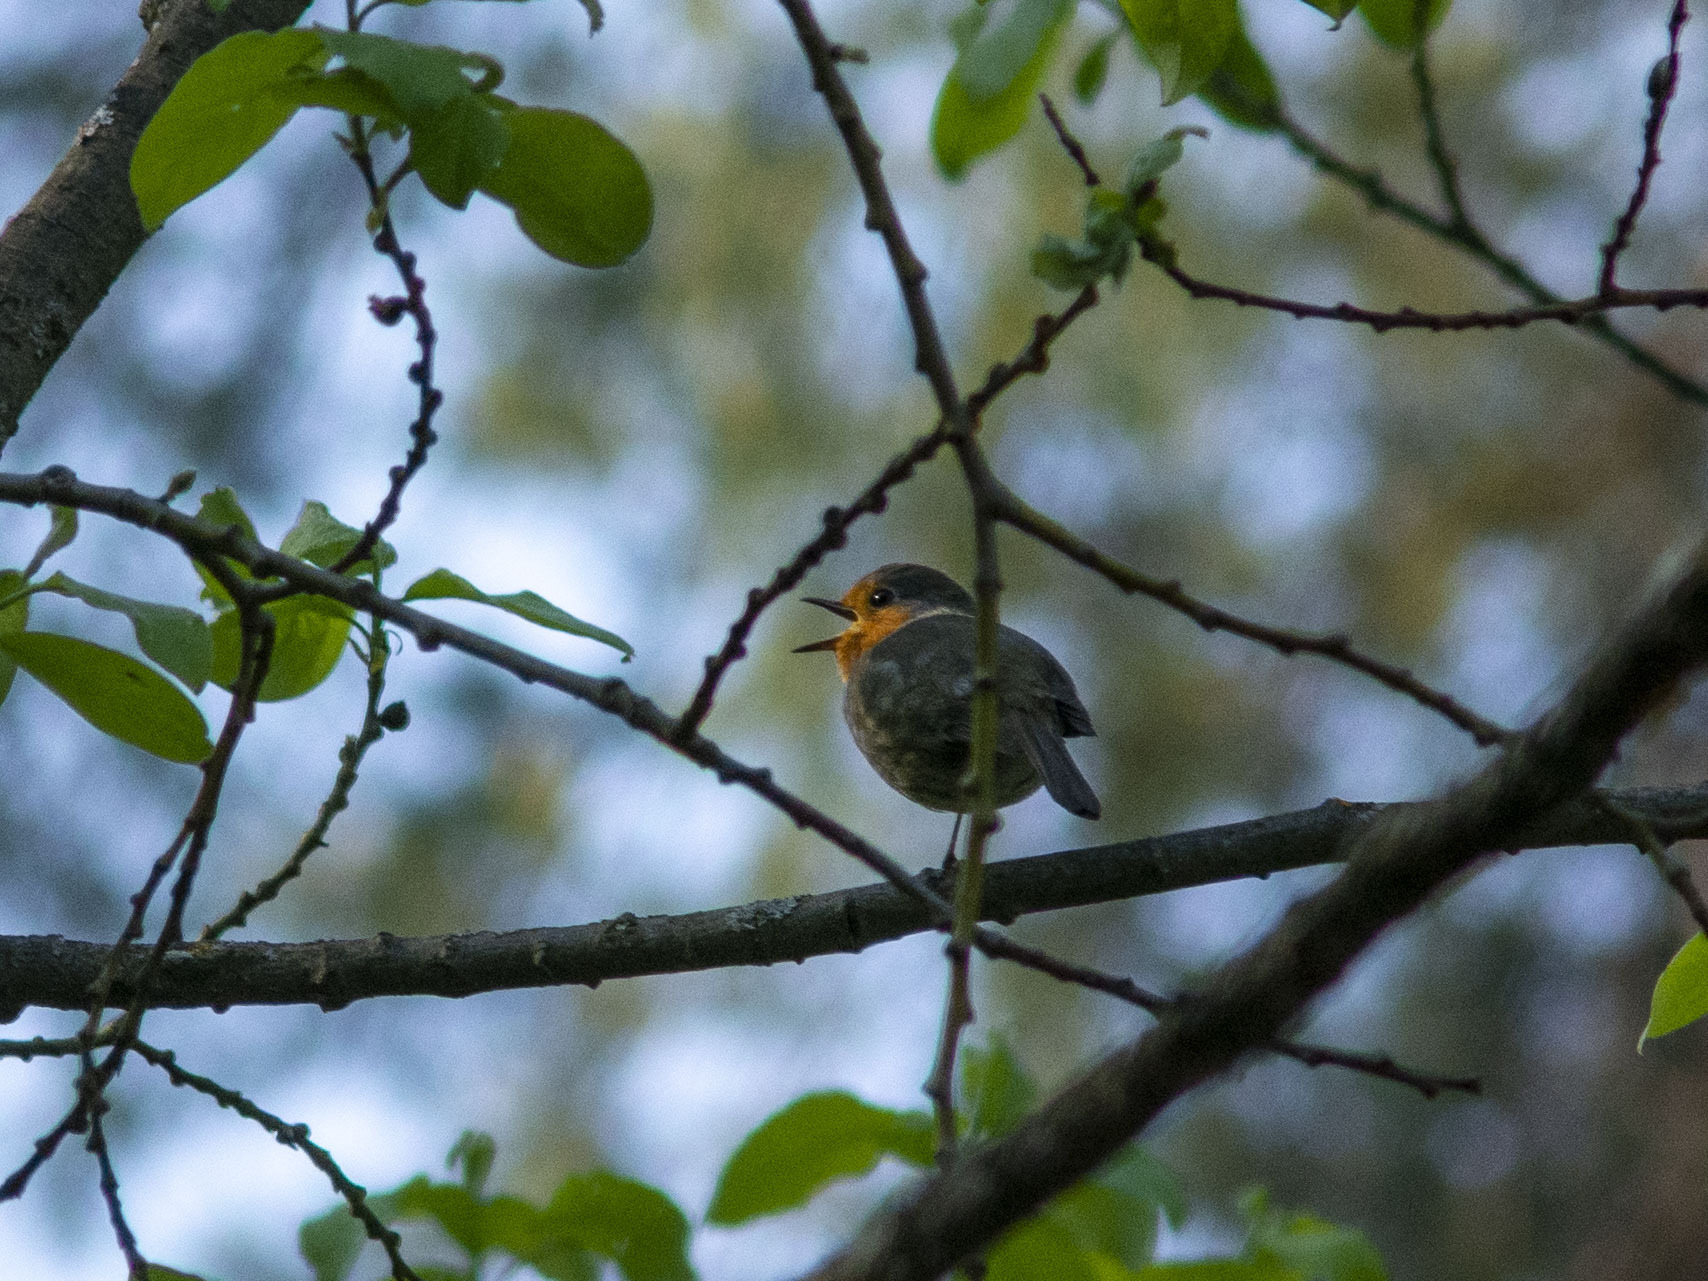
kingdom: Animalia
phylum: Chordata
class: Aves
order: Passeriformes
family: Muscicapidae
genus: Erithacus
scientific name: Erithacus rubecula
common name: European robin
